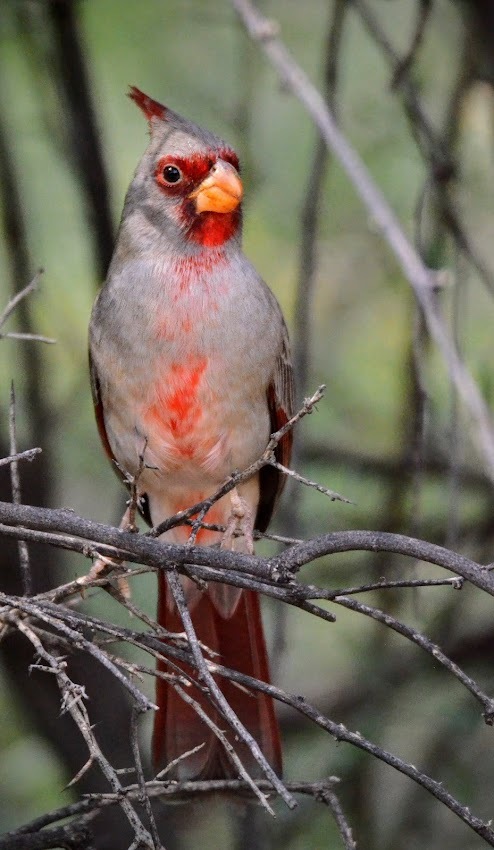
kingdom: Animalia
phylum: Chordata
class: Aves
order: Passeriformes
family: Cardinalidae
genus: Cardinalis
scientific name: Cardinalis sinuatus
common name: Pyrrhuloxia
